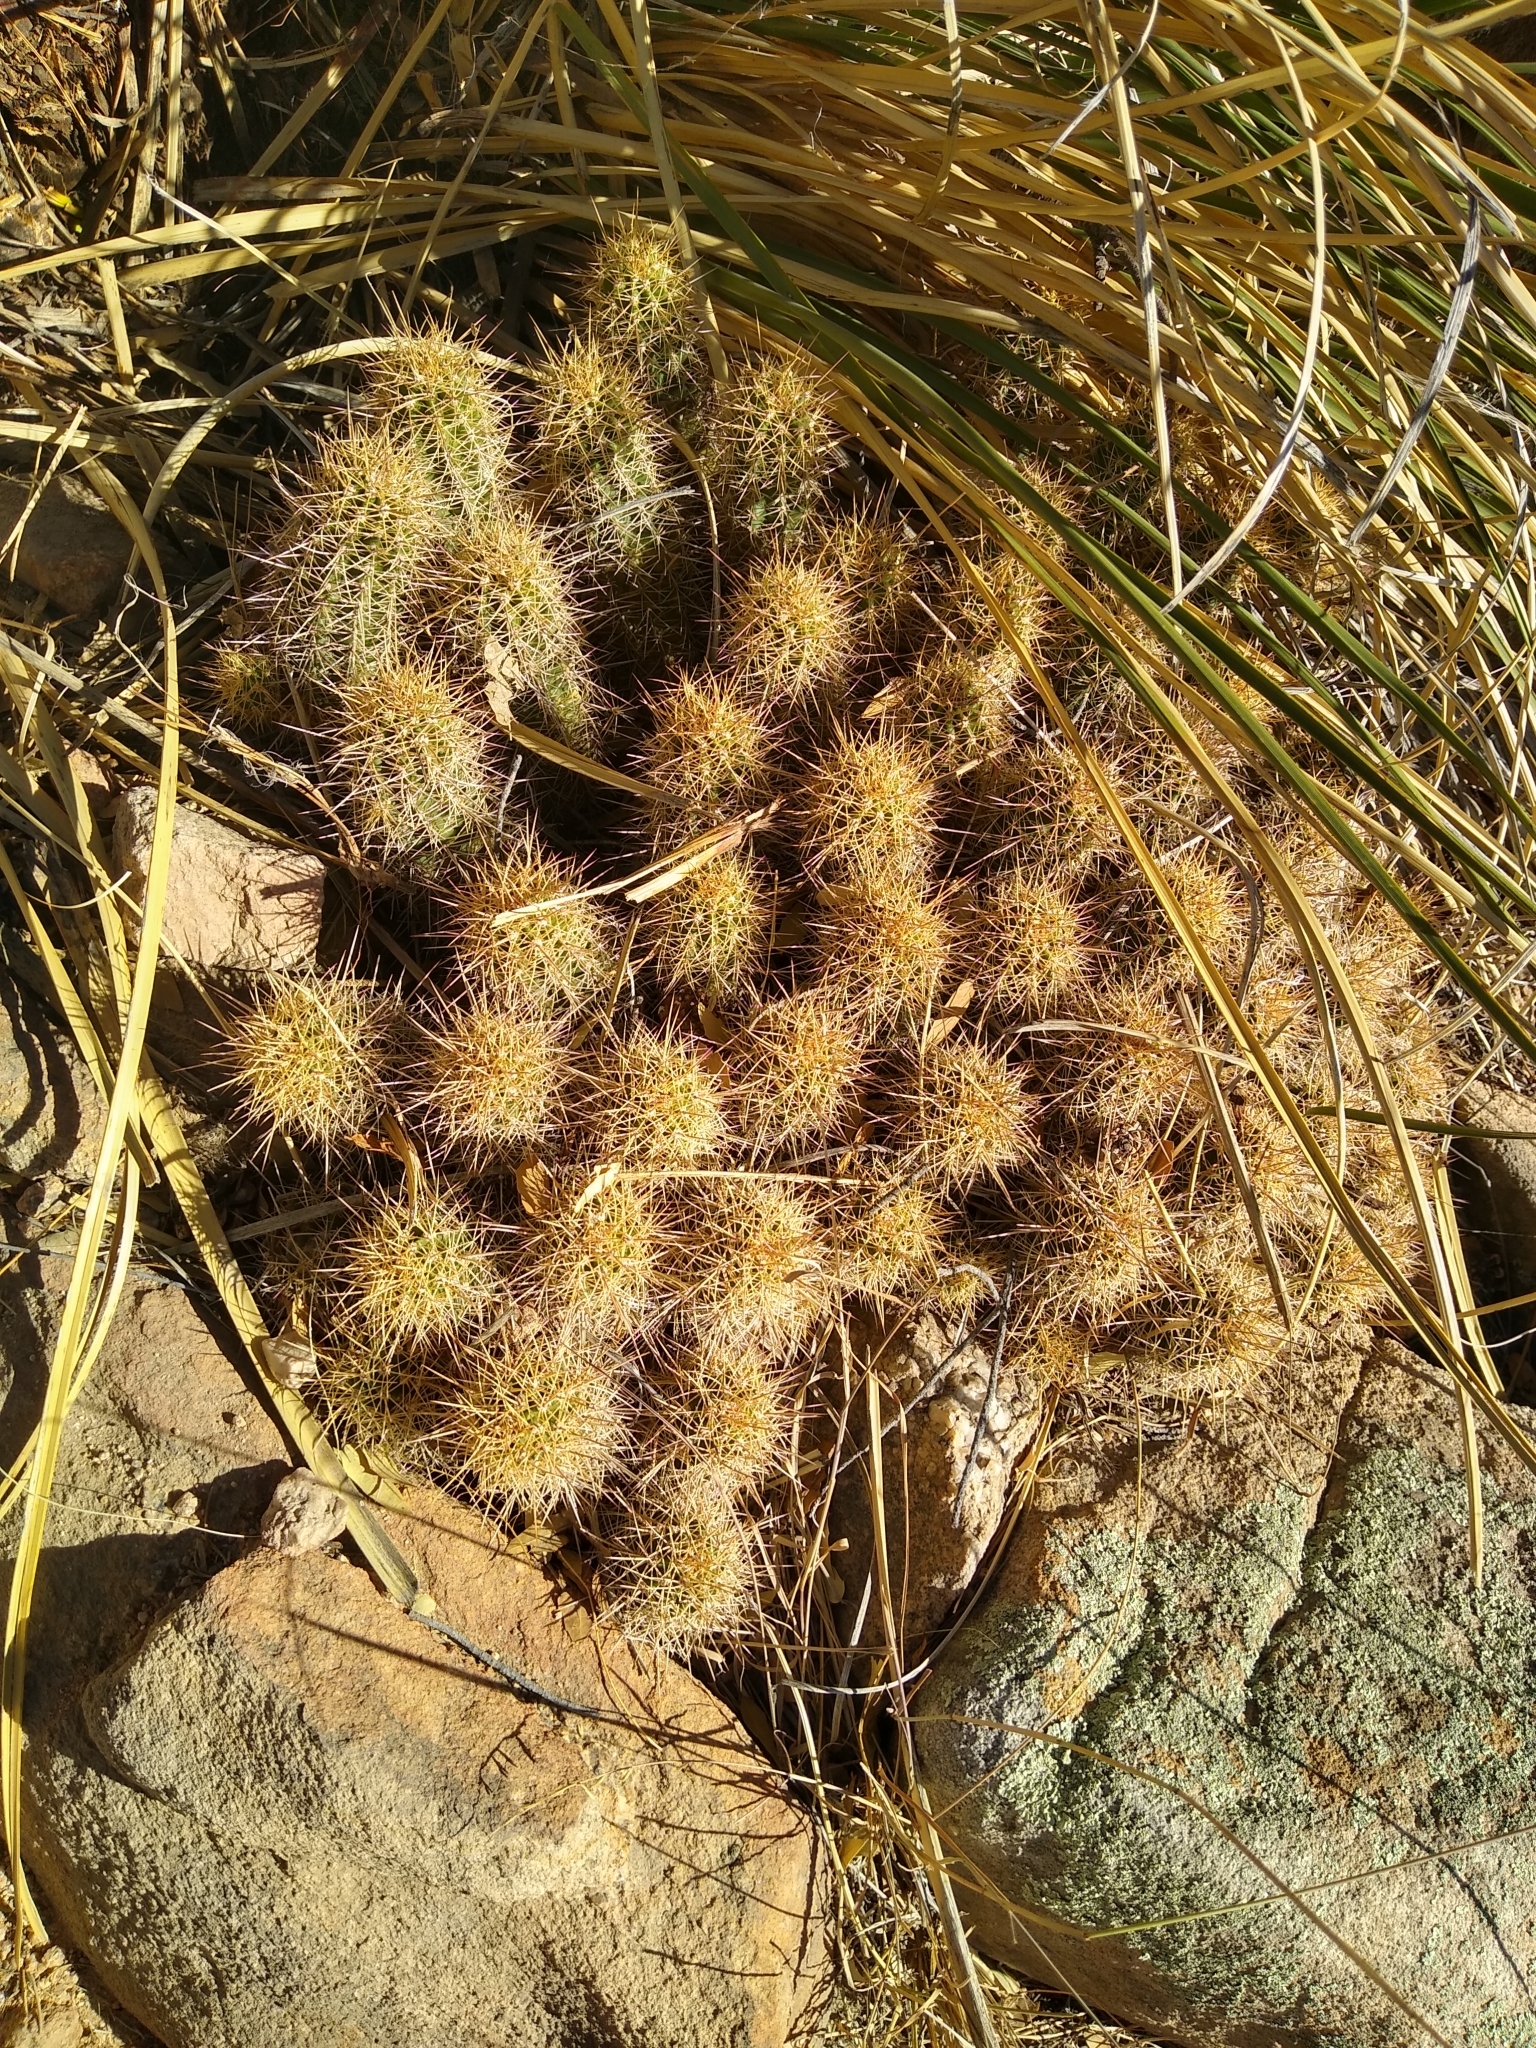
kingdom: Plantae
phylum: Tracheophyta
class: Magnoliopsida
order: Caryophyllales
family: Cactaceae
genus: Echinocereus
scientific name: Echinocereus bakeri
